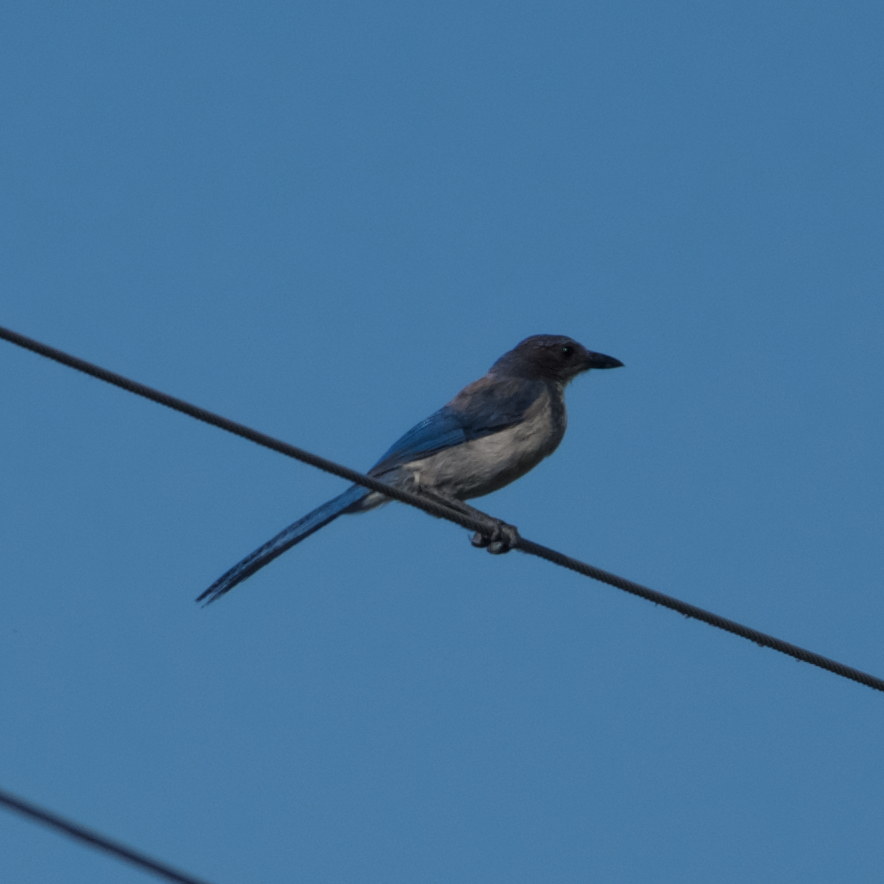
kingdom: Animalia
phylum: Chordata
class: Aves
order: Passeriformes
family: Corvidae
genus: Aphelocoma
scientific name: Aphelocoma californica
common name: California scrub-jay
